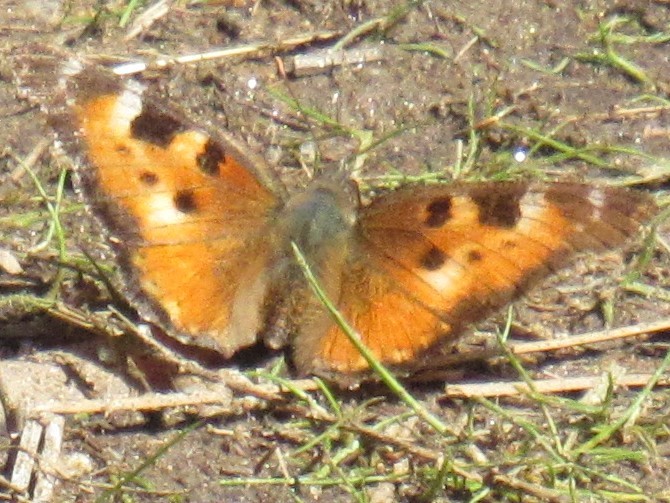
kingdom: Animalia
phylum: Arthropoda
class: Insecta
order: Lepidoptera
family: Nymphalidae
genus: Nymphalis
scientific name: Nymphalis californica
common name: California tortoiseshell
